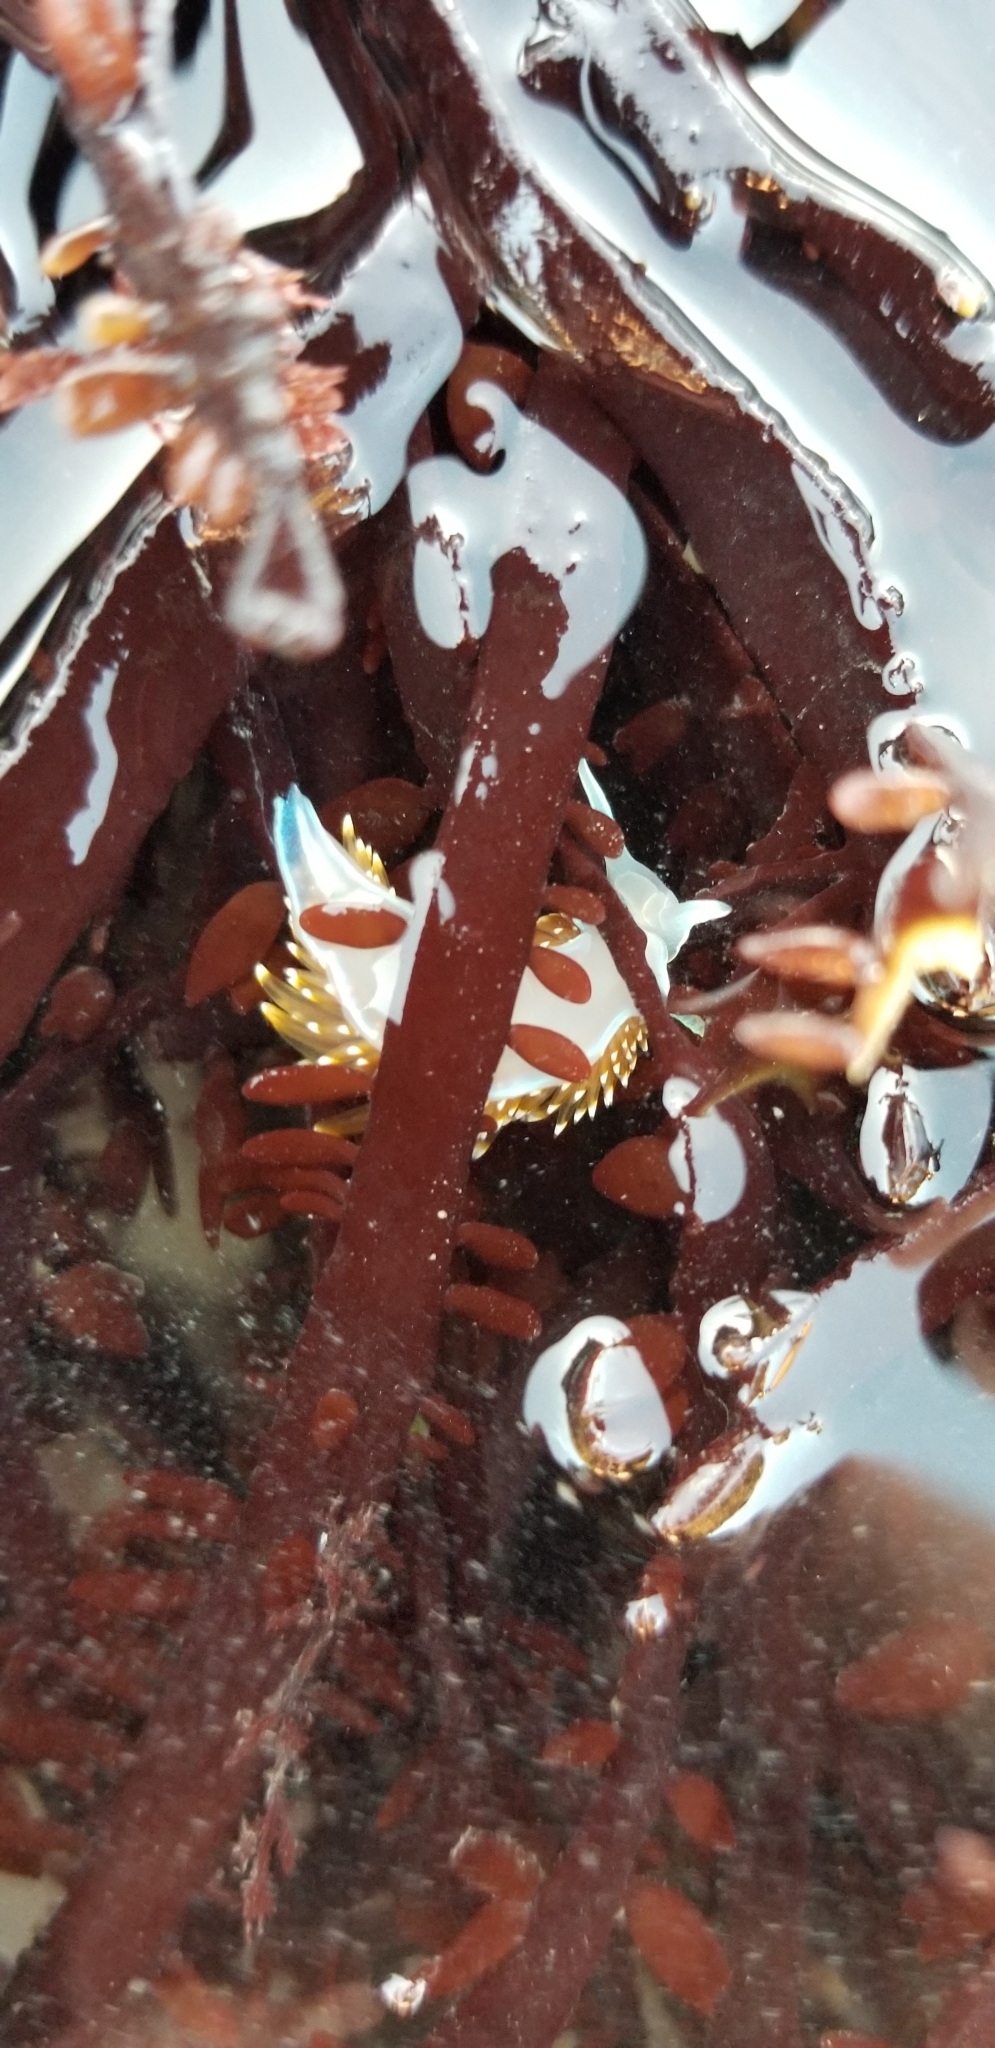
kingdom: Animalia
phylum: Mollusca
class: Gastropoda
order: Nudibranchia
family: Myrrhinidae
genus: Hermissenda
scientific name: Hermissenda opalescens
